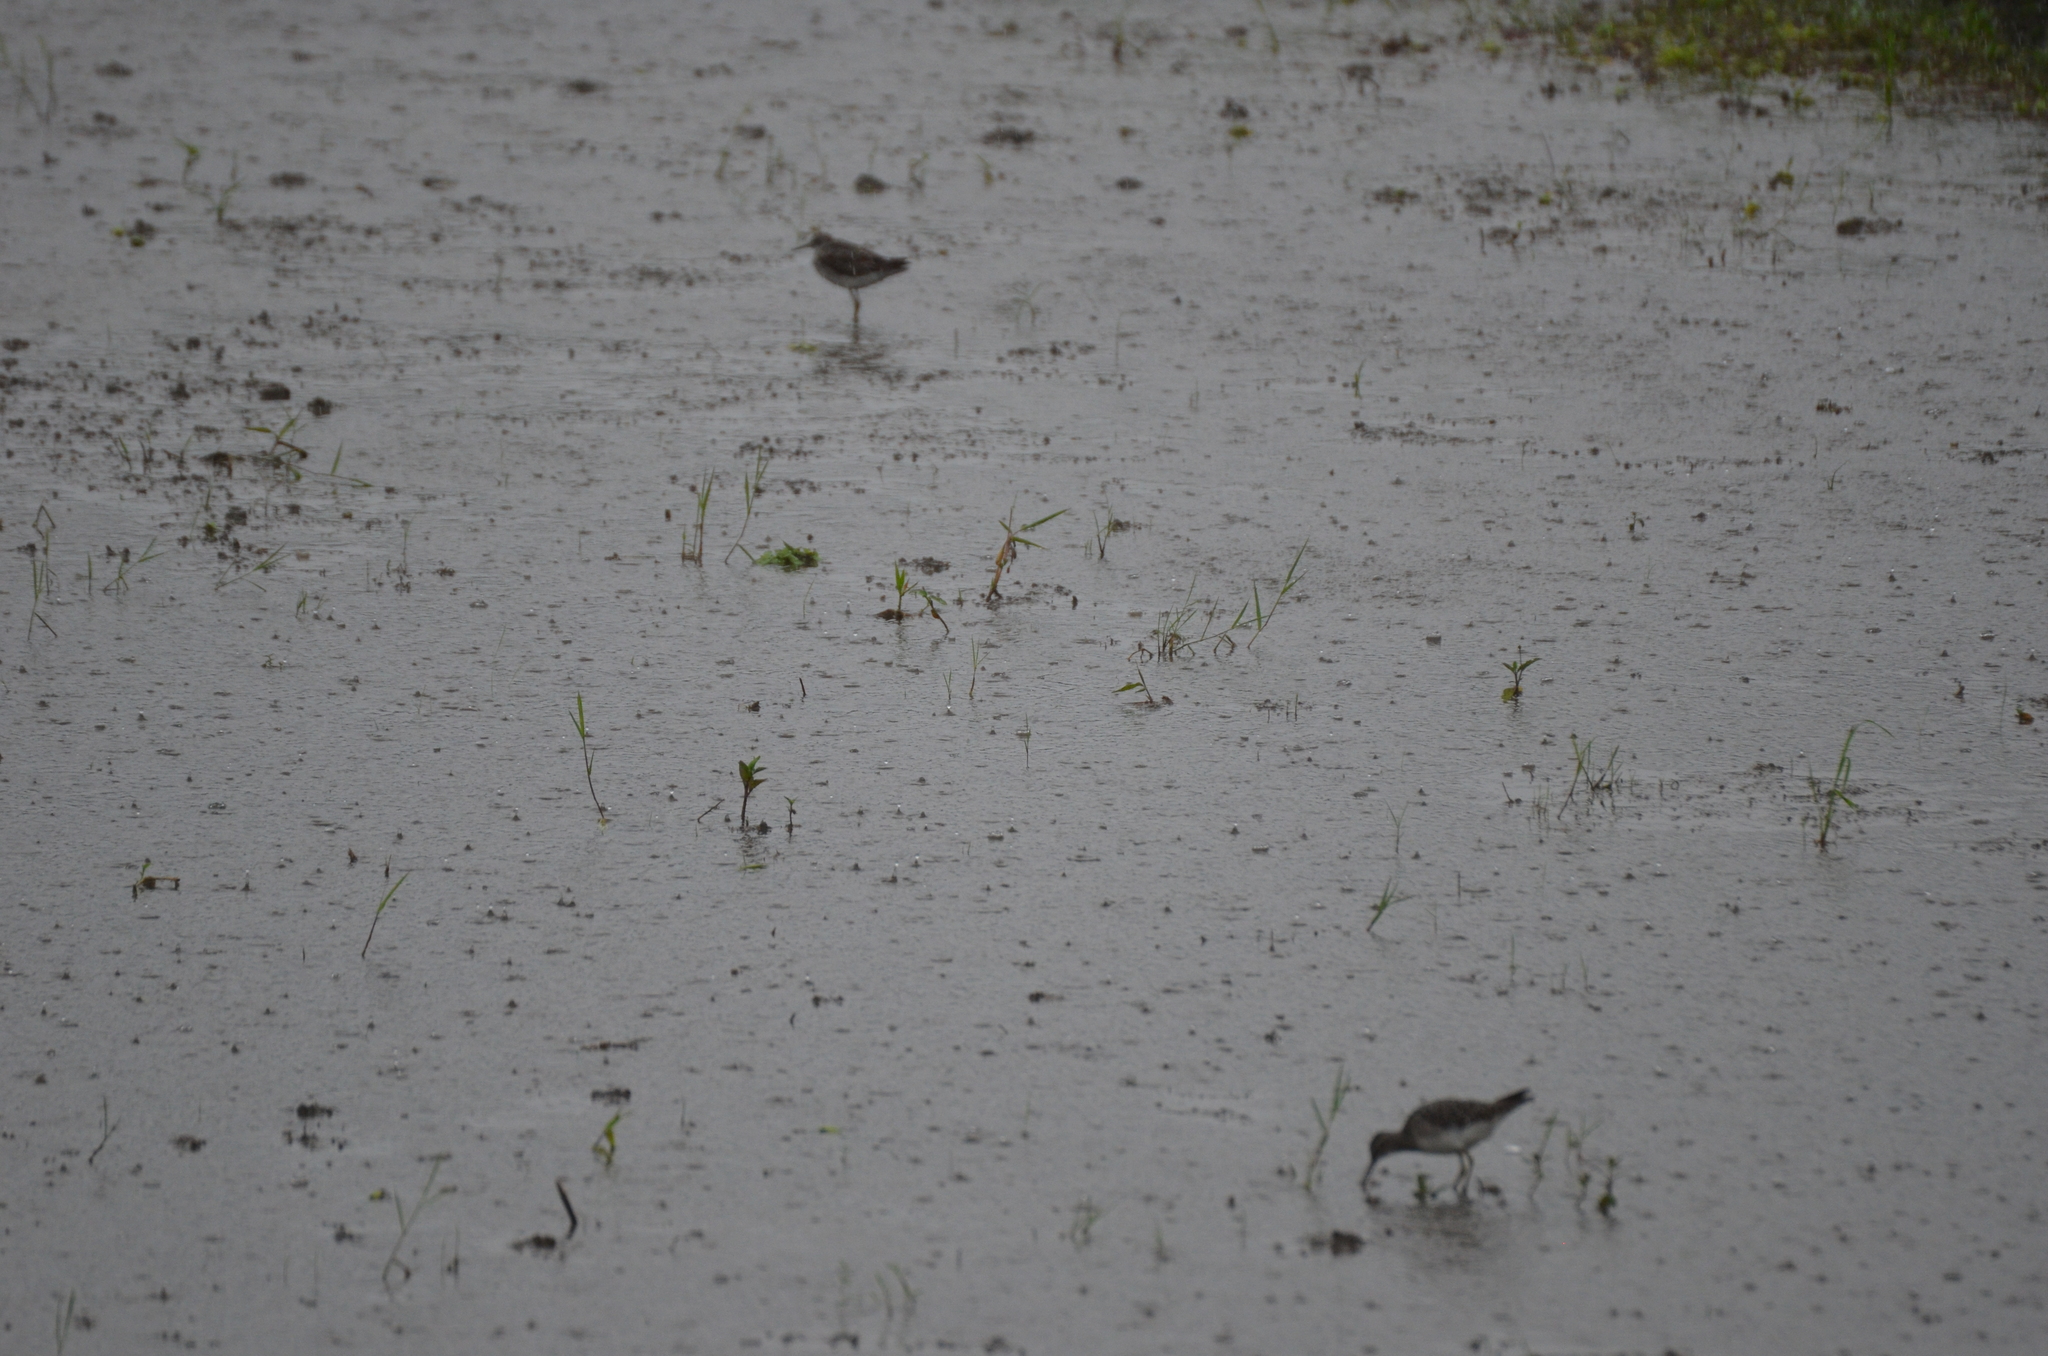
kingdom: Animalia
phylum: Chordata
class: Aves
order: Charadriiformes
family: Scolopacidae
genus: Tringa
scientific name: Tringa glareola
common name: Wood sandpiper
